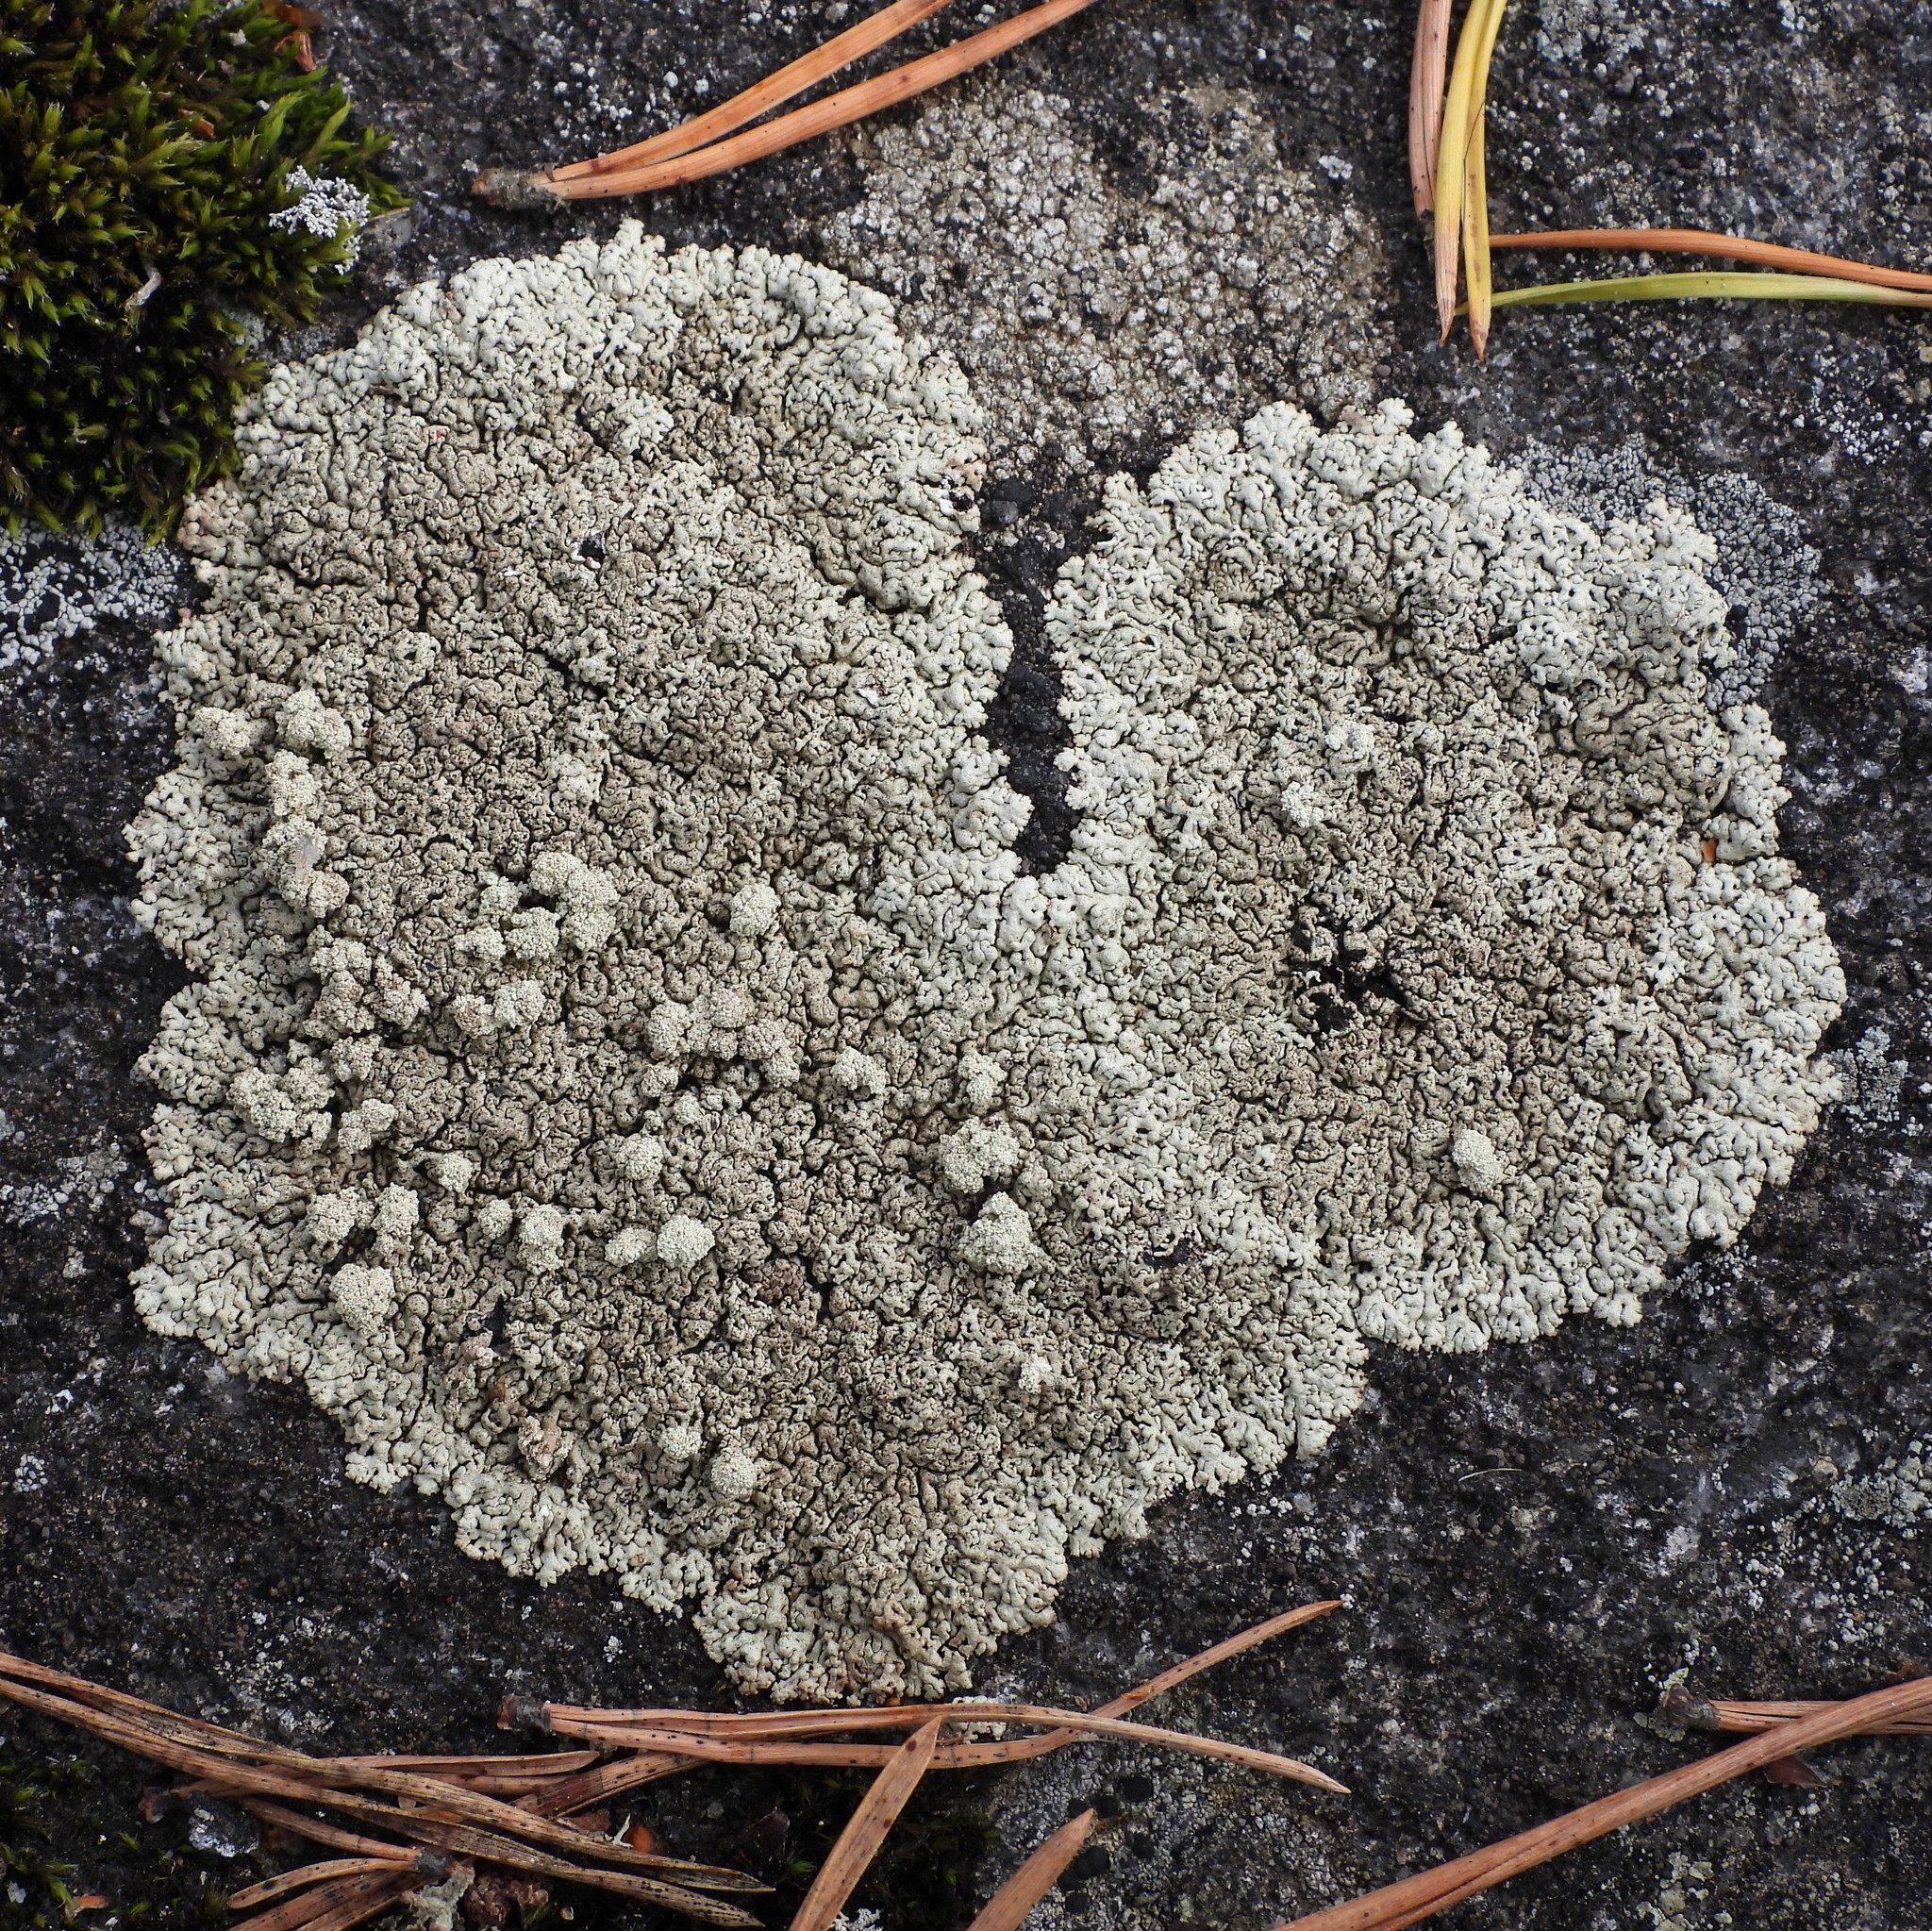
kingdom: Fungi
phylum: Ascomycota
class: Lecanoromycetes
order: Lecanorales
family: Parmeliaceae
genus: Arctoparmelia
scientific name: Arctoparmelia incurva
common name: Bent ring lichen
